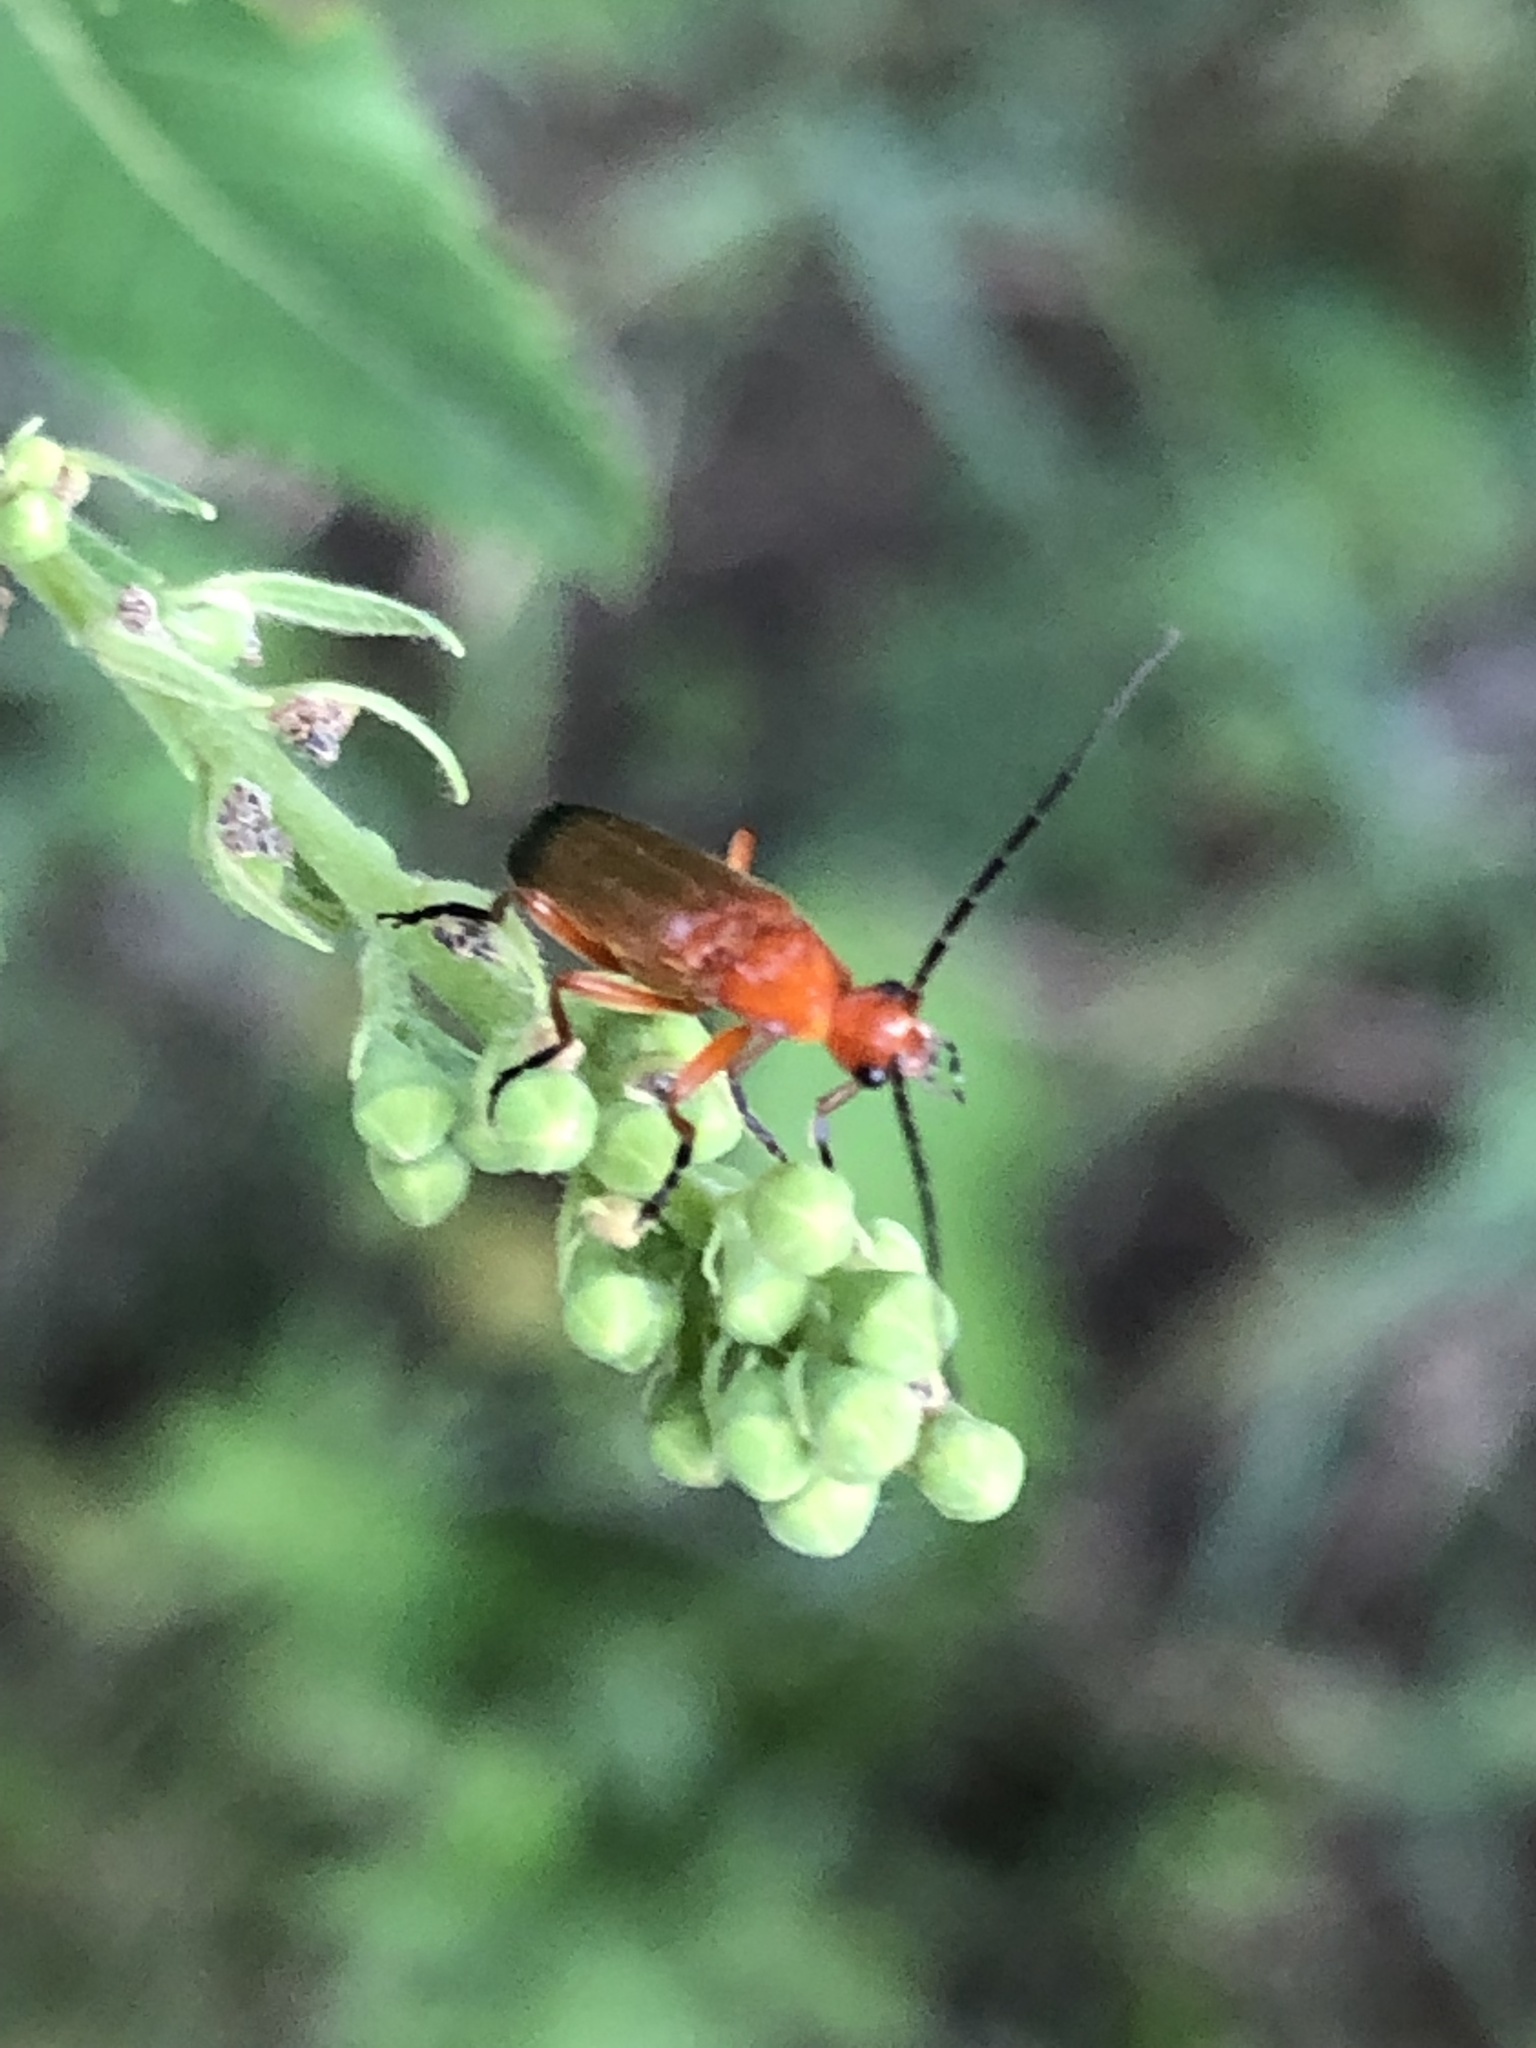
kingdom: Animalia
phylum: Arthropoda
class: Insecta
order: Coleoptera
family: Cantharidae
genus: Rhagonycha
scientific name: Rhagonycha fulva
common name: Common red soldier beetle
